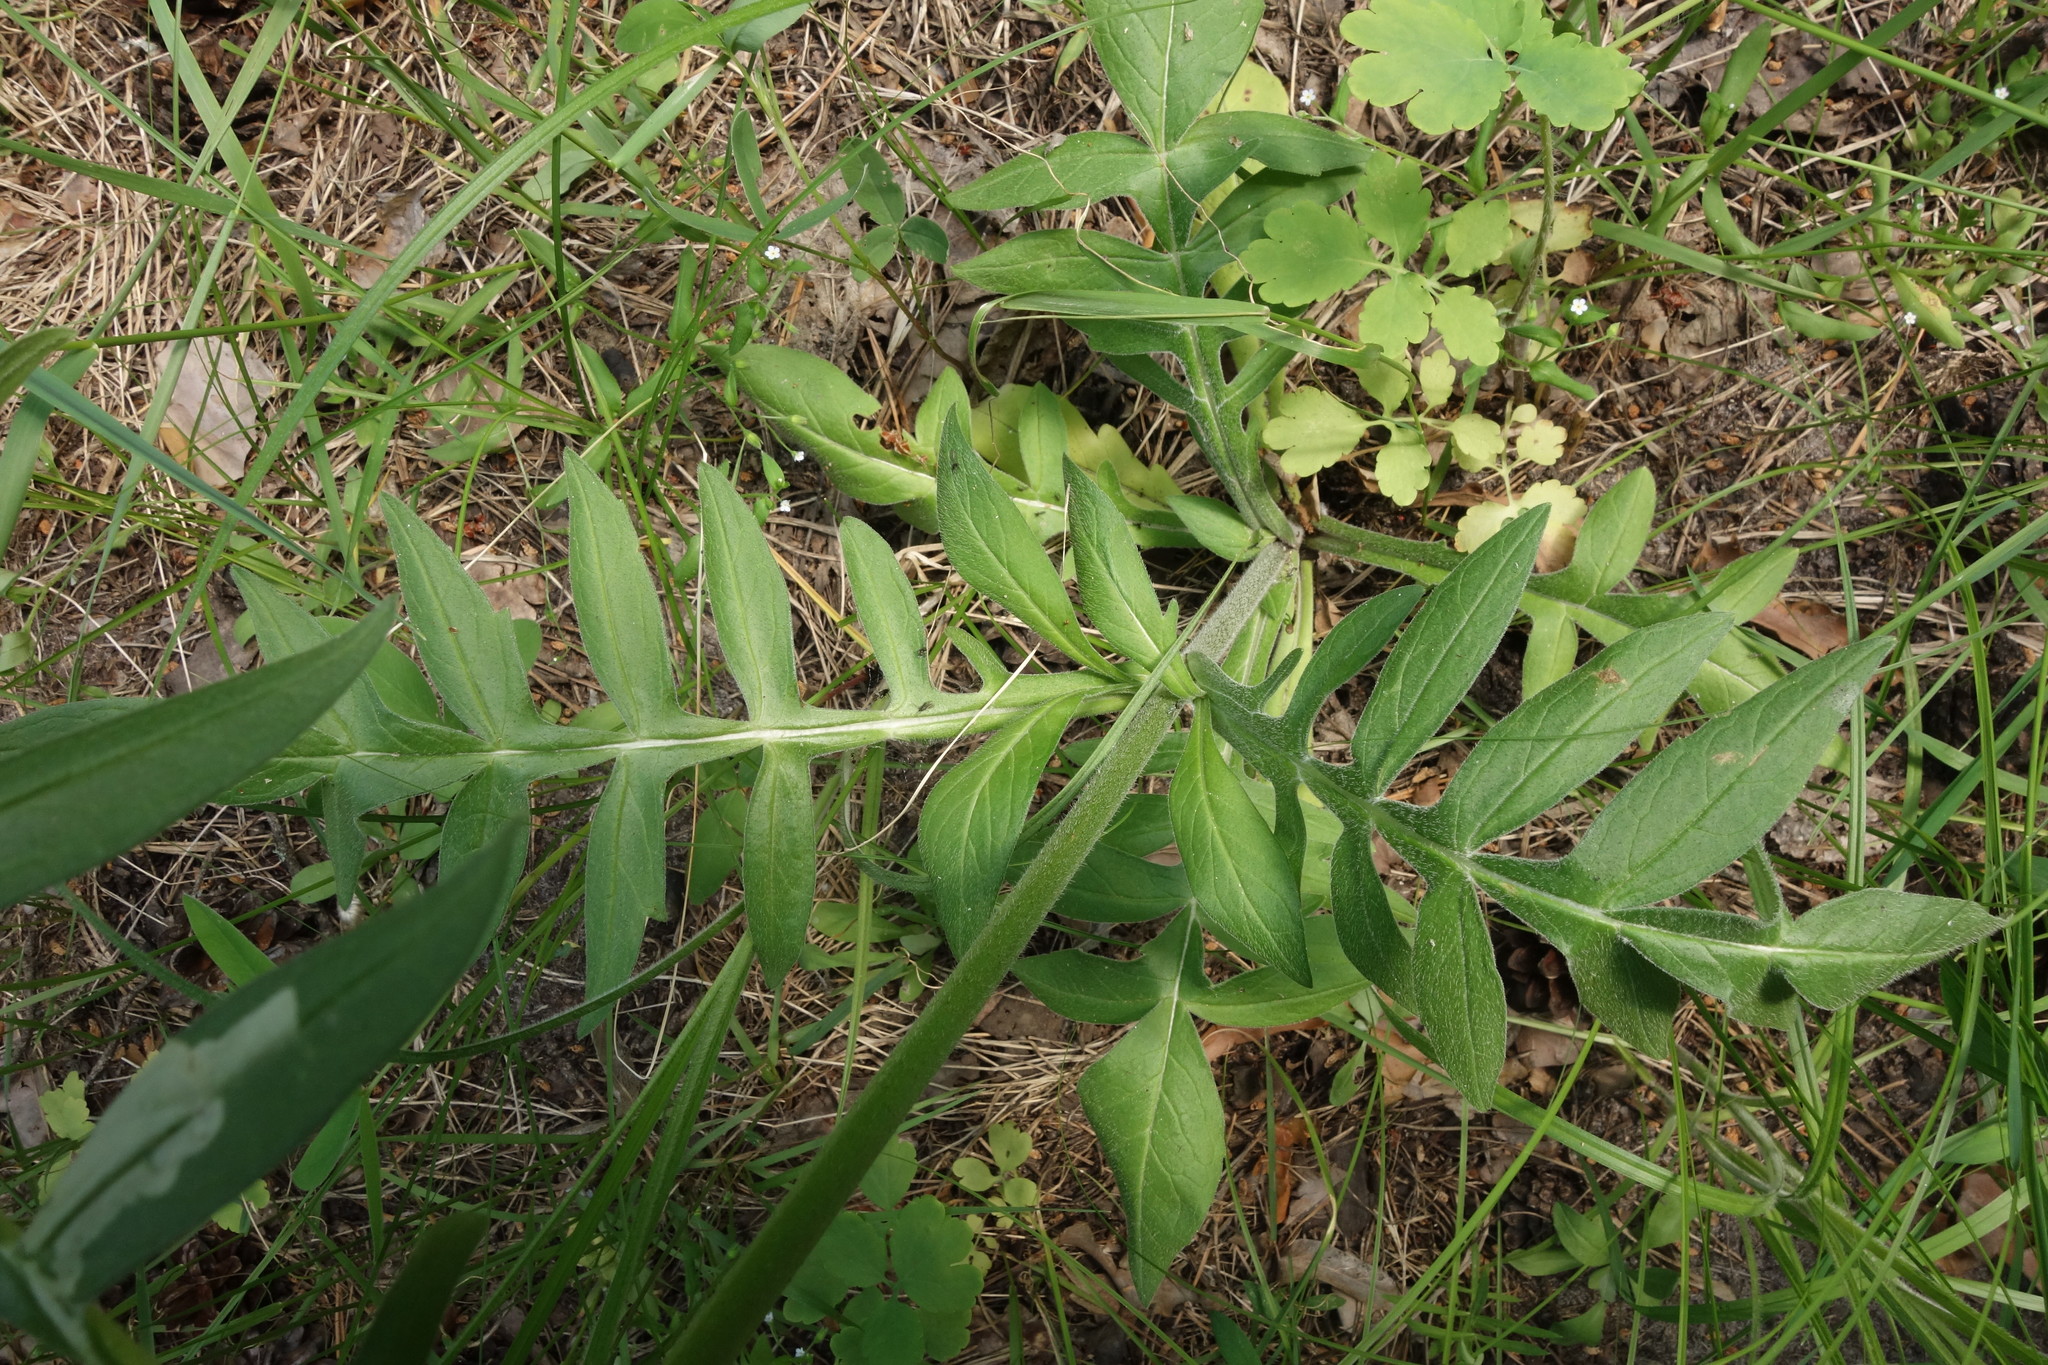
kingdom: Plantae
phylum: Tracheophyta
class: Magnoliopsida
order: Dipsacales
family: Caprifoliaceae
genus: Knautia
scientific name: Knautia arvensis
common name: Field scabiosa
